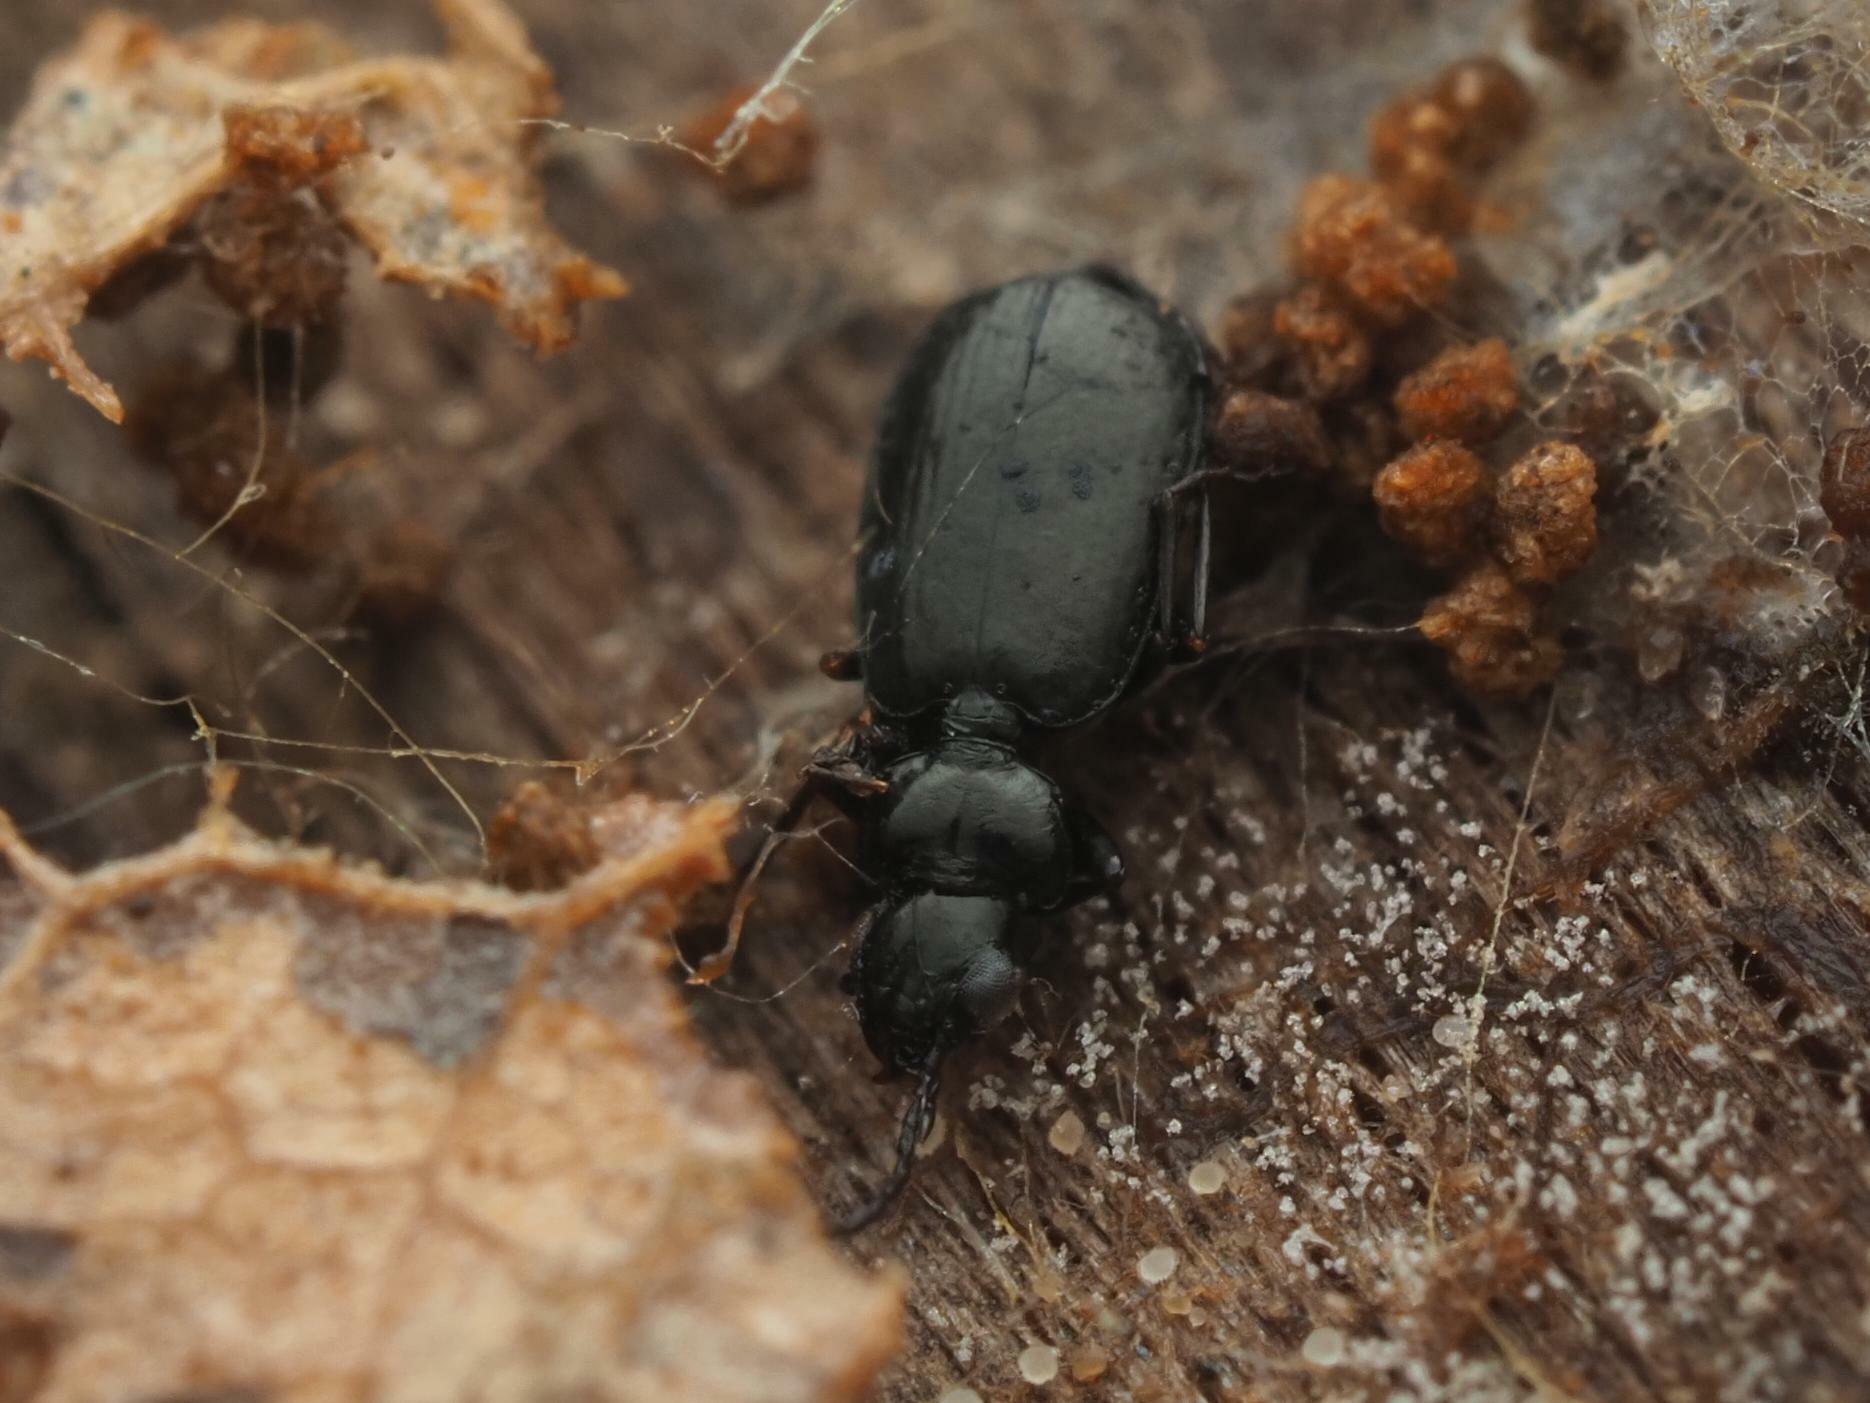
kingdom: Animalia
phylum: Arthropoda
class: Insecta
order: Coleoptera
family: Carabidae
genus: Syntomus
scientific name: Syntomus truncatellus
